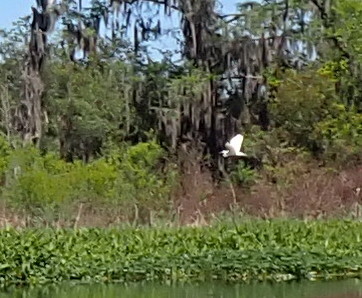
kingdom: Animalia
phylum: Chordata
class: Aves
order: Pelecaniformes
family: Ardeidae
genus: Ardea
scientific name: Ardea alba
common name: Great egret
